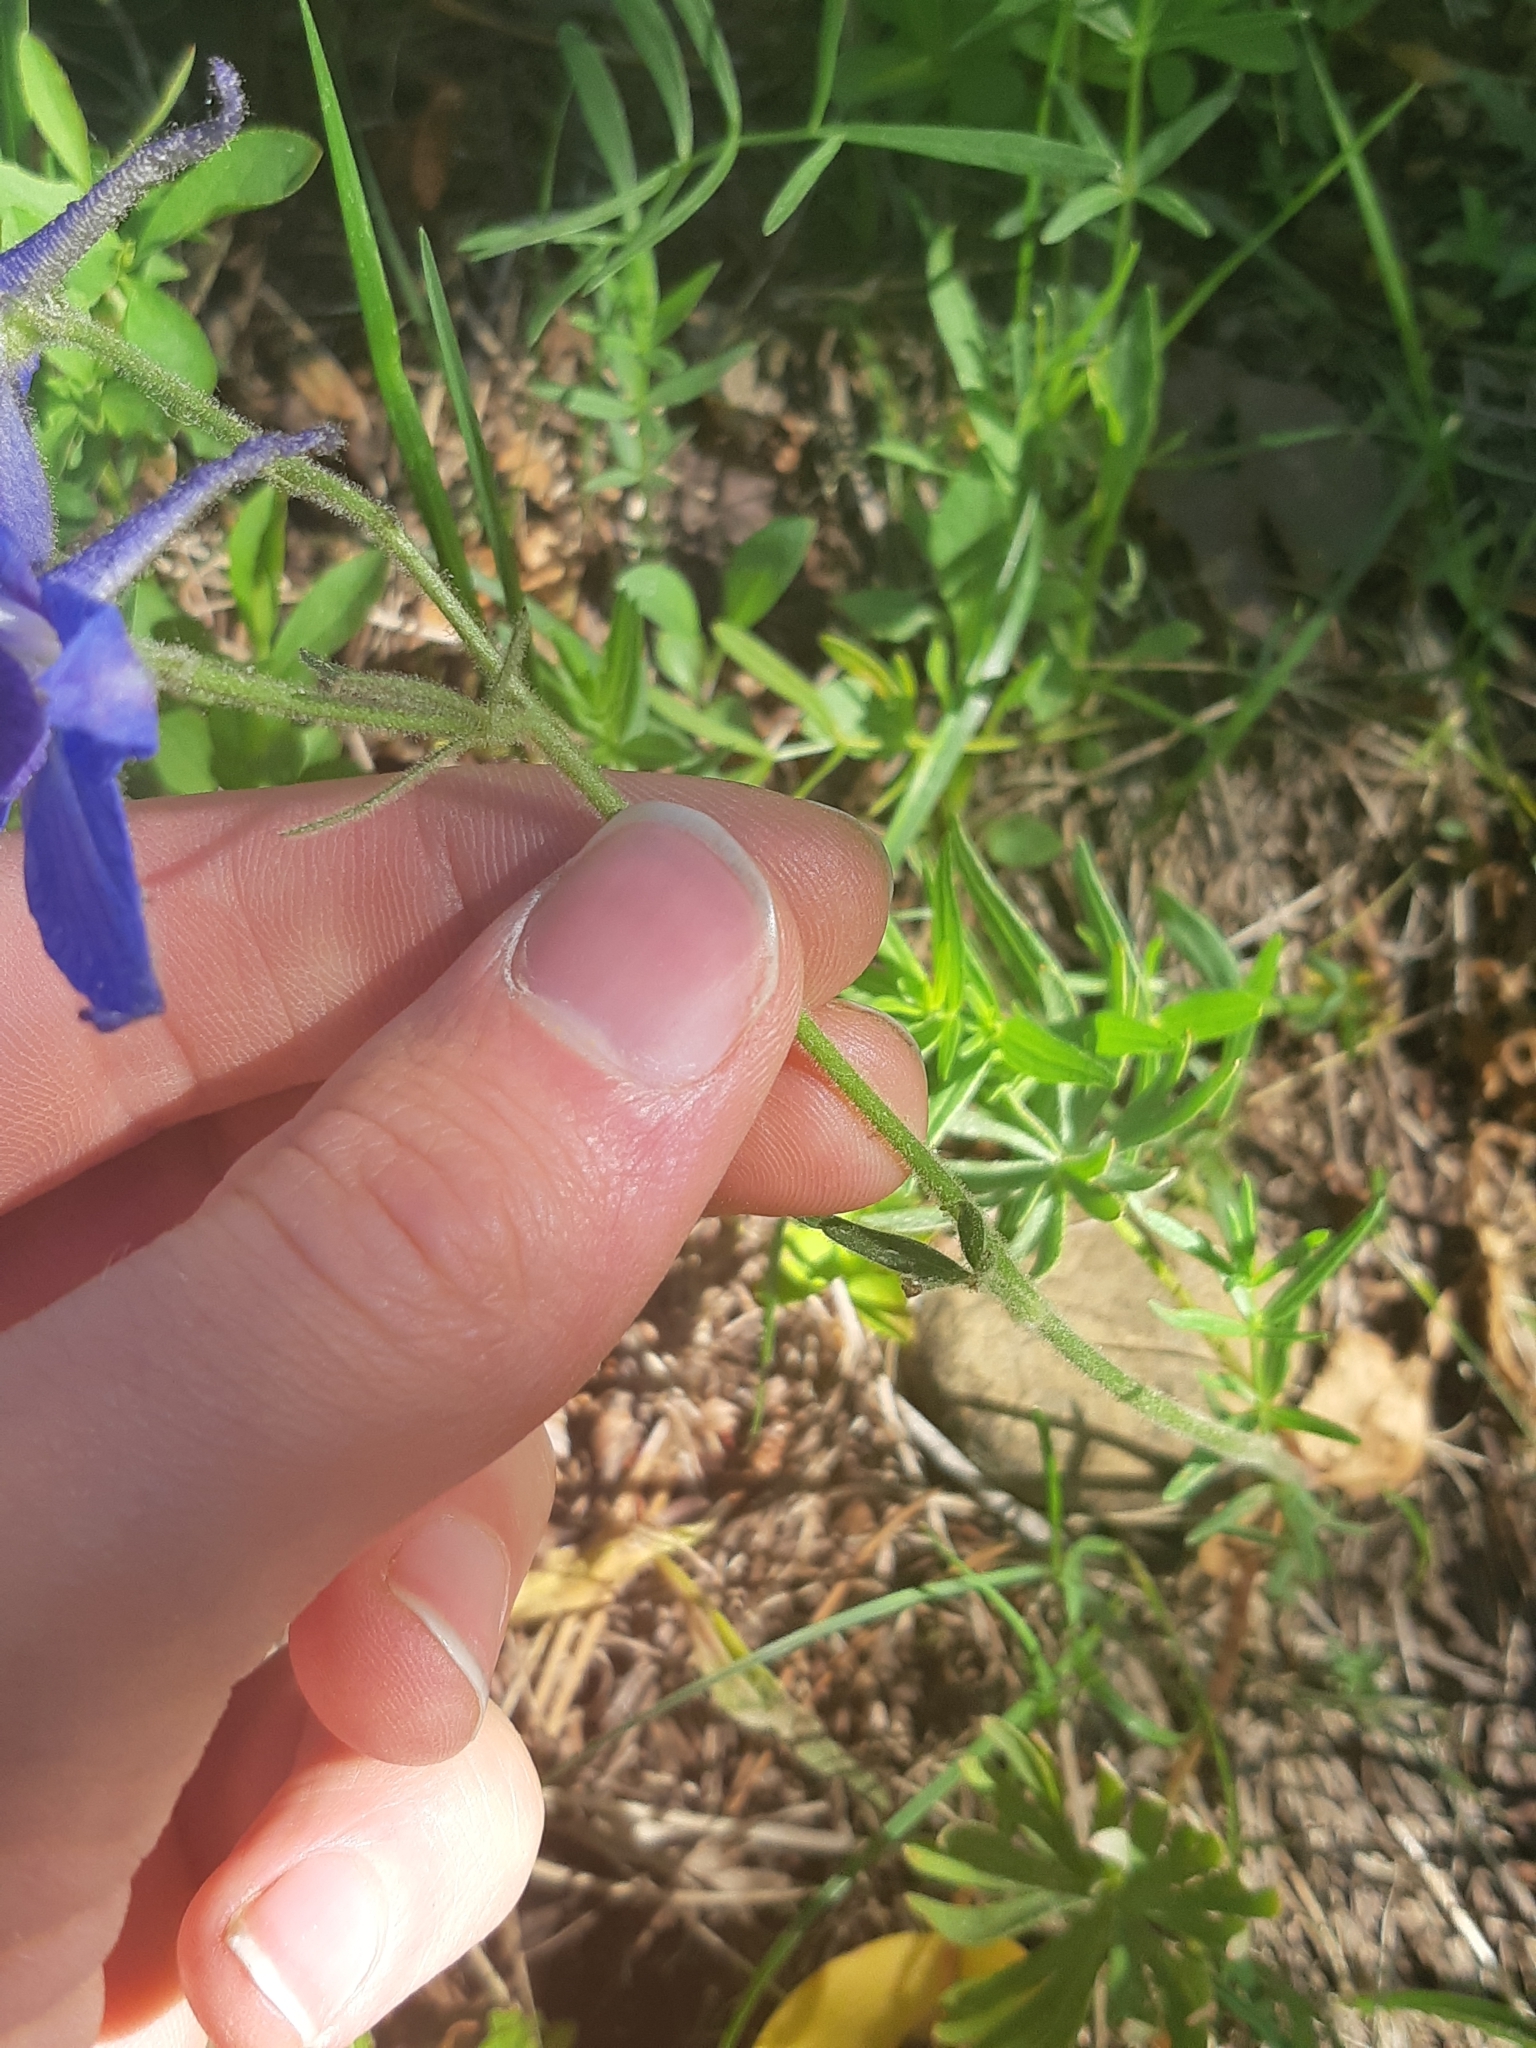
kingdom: Plantae
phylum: Tracheophyta
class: Magnoliopsida
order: Ranunculales
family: Ranunculaceae
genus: Delphinium
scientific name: Delphinium bicolor
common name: Low larkspur
